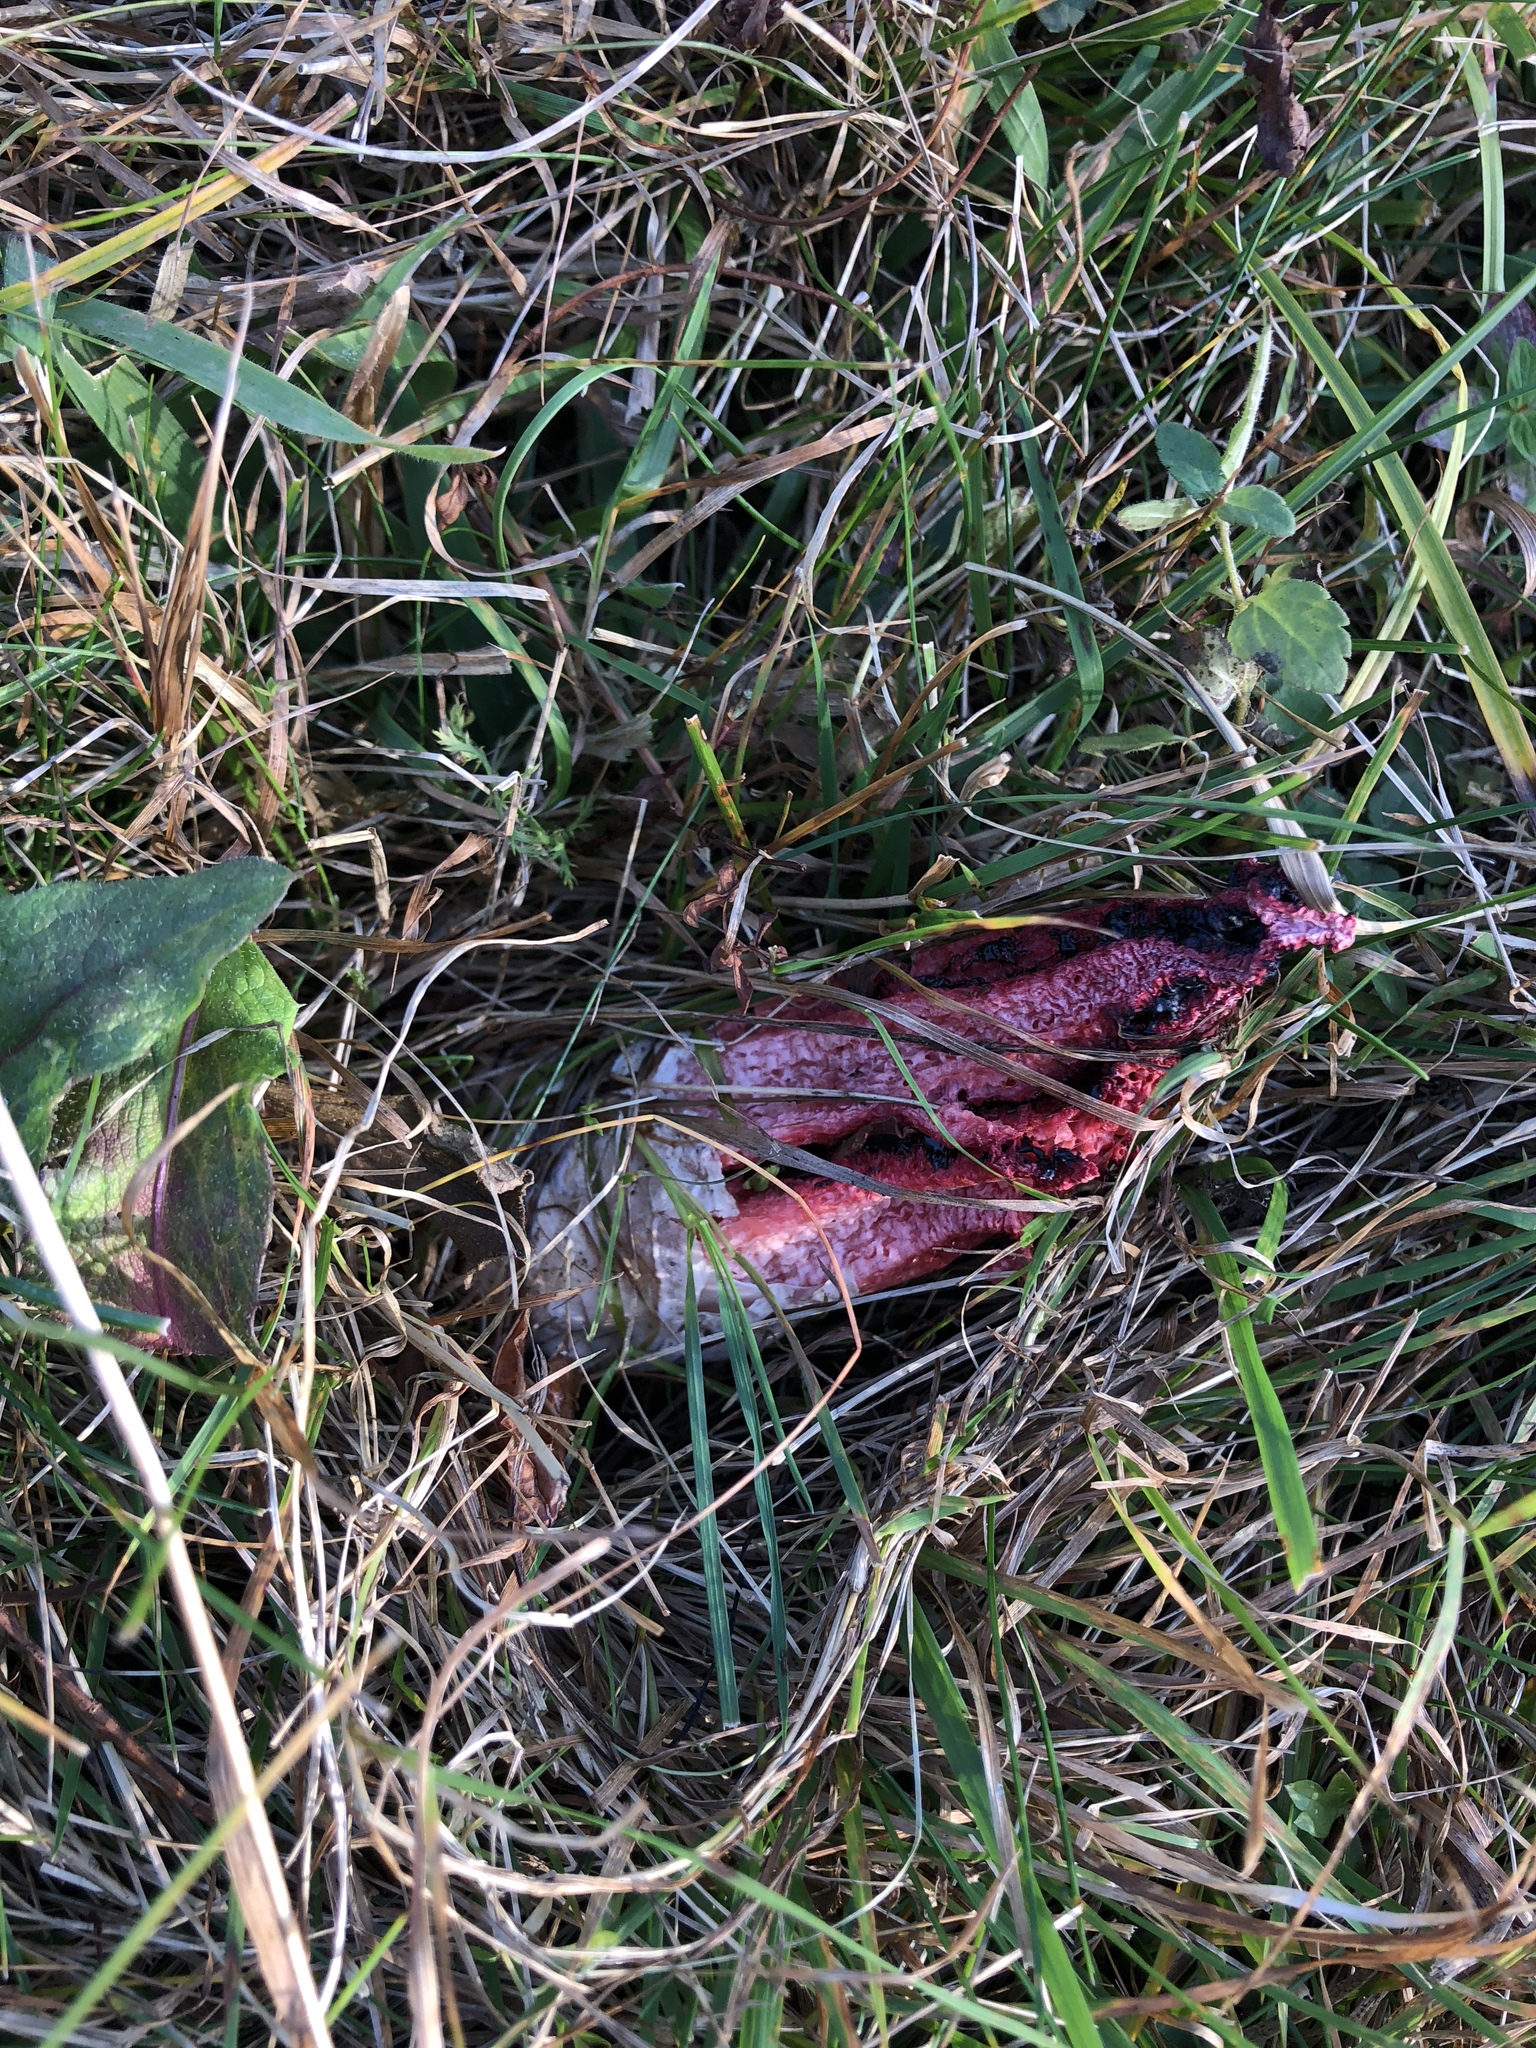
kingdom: Fungi
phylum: Basidiomycota
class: Agaricomycetes
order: Phallales
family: Phallaceae
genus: Clathrus
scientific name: Clathrus archeri
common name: Devil's fingers
